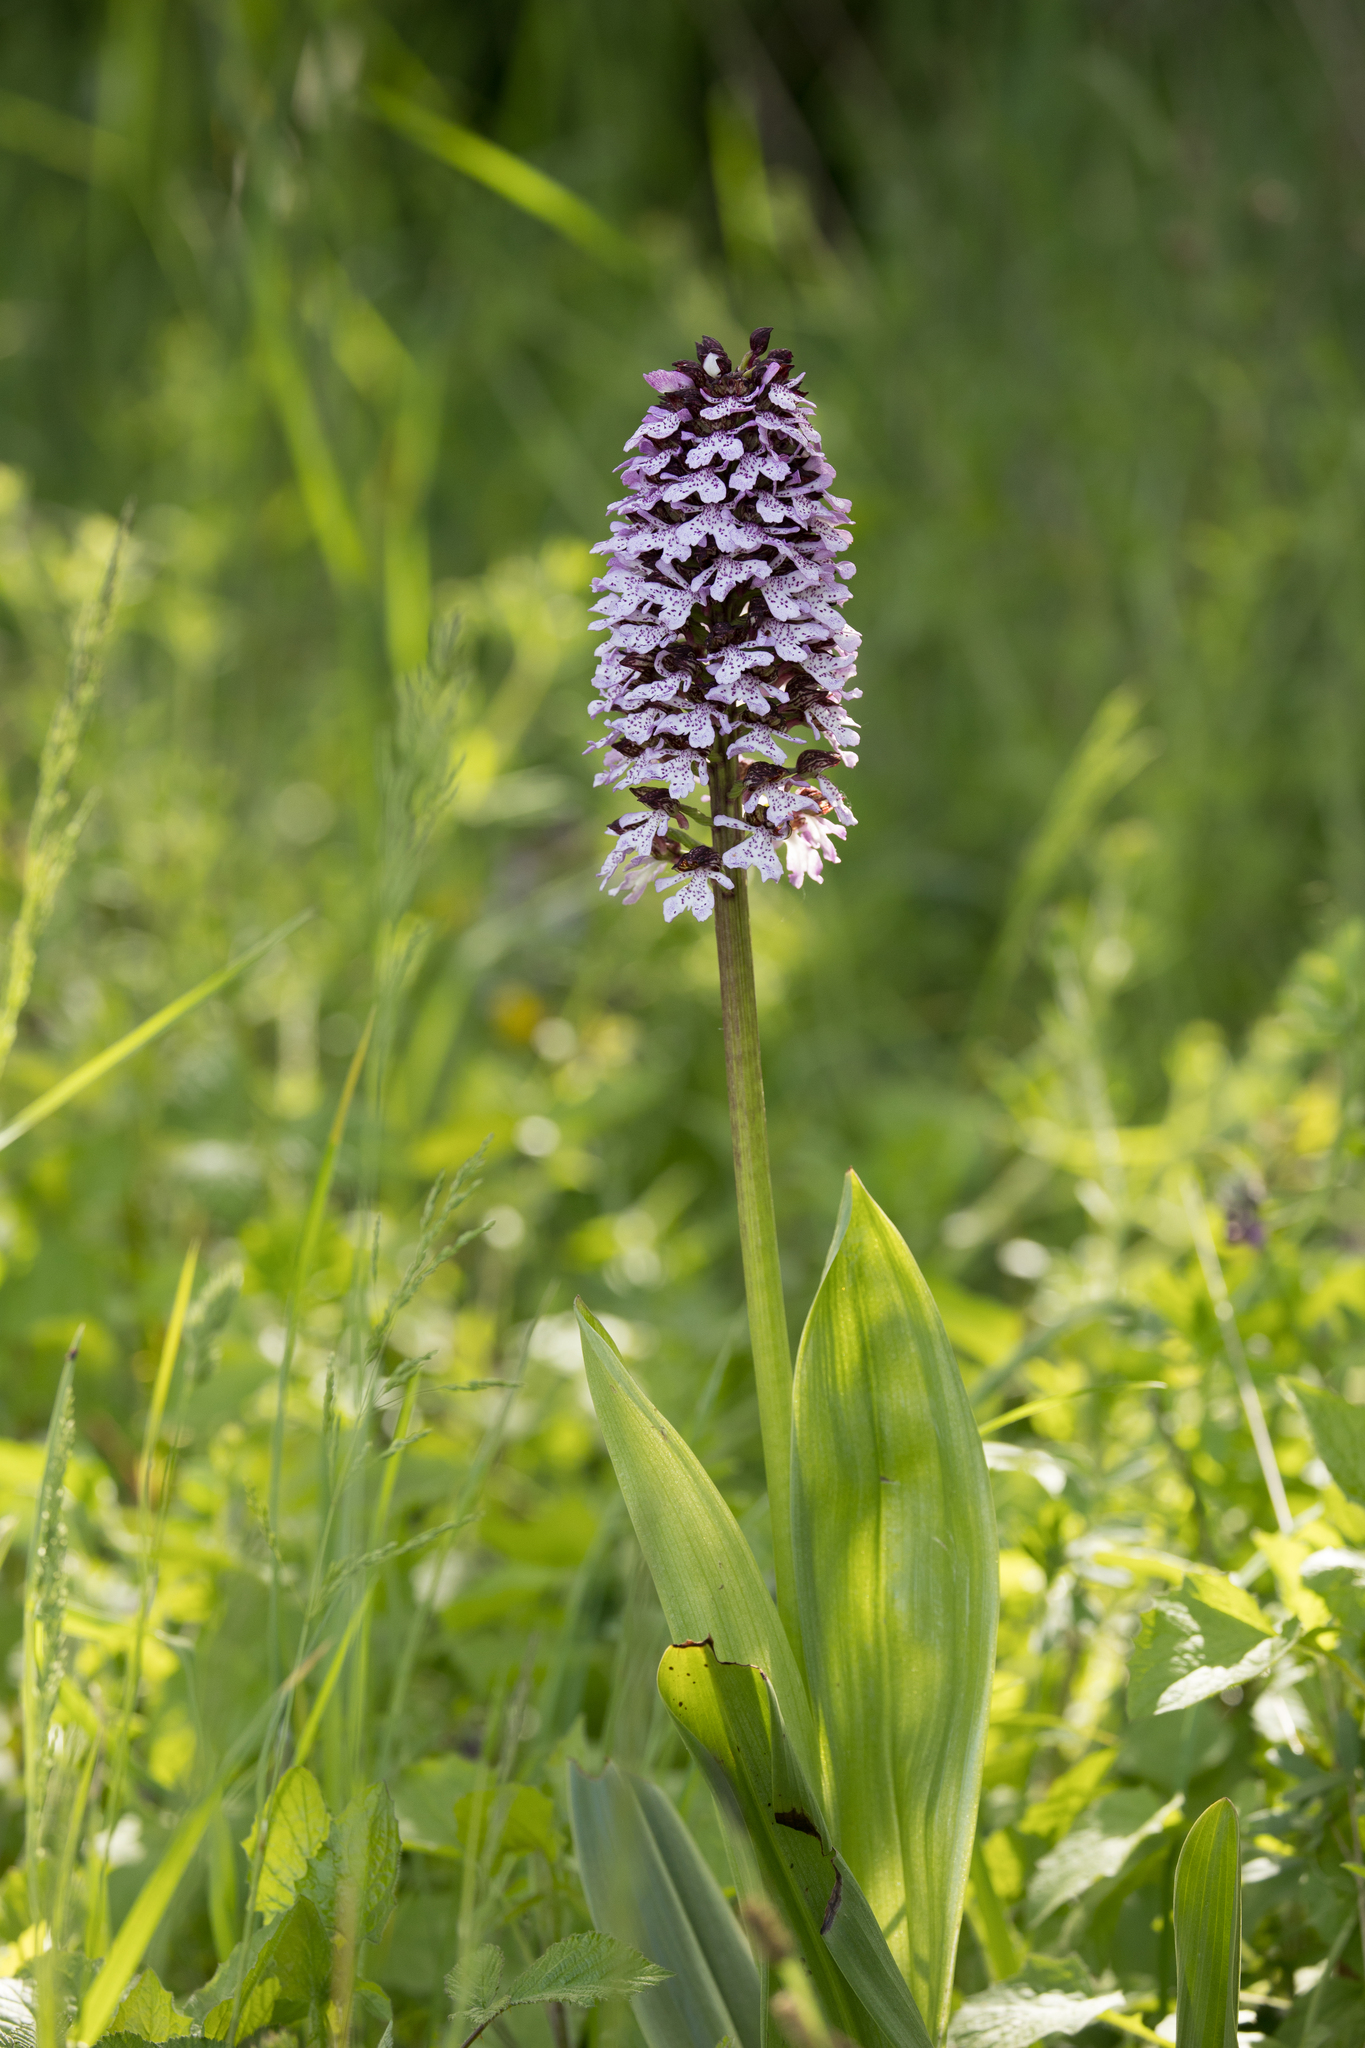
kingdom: Plantae
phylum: Tracheophyta
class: Liliopsida
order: Asparagales
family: Orchidaceae
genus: Orchis
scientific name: Orchis purpurea
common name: Lady orchid
